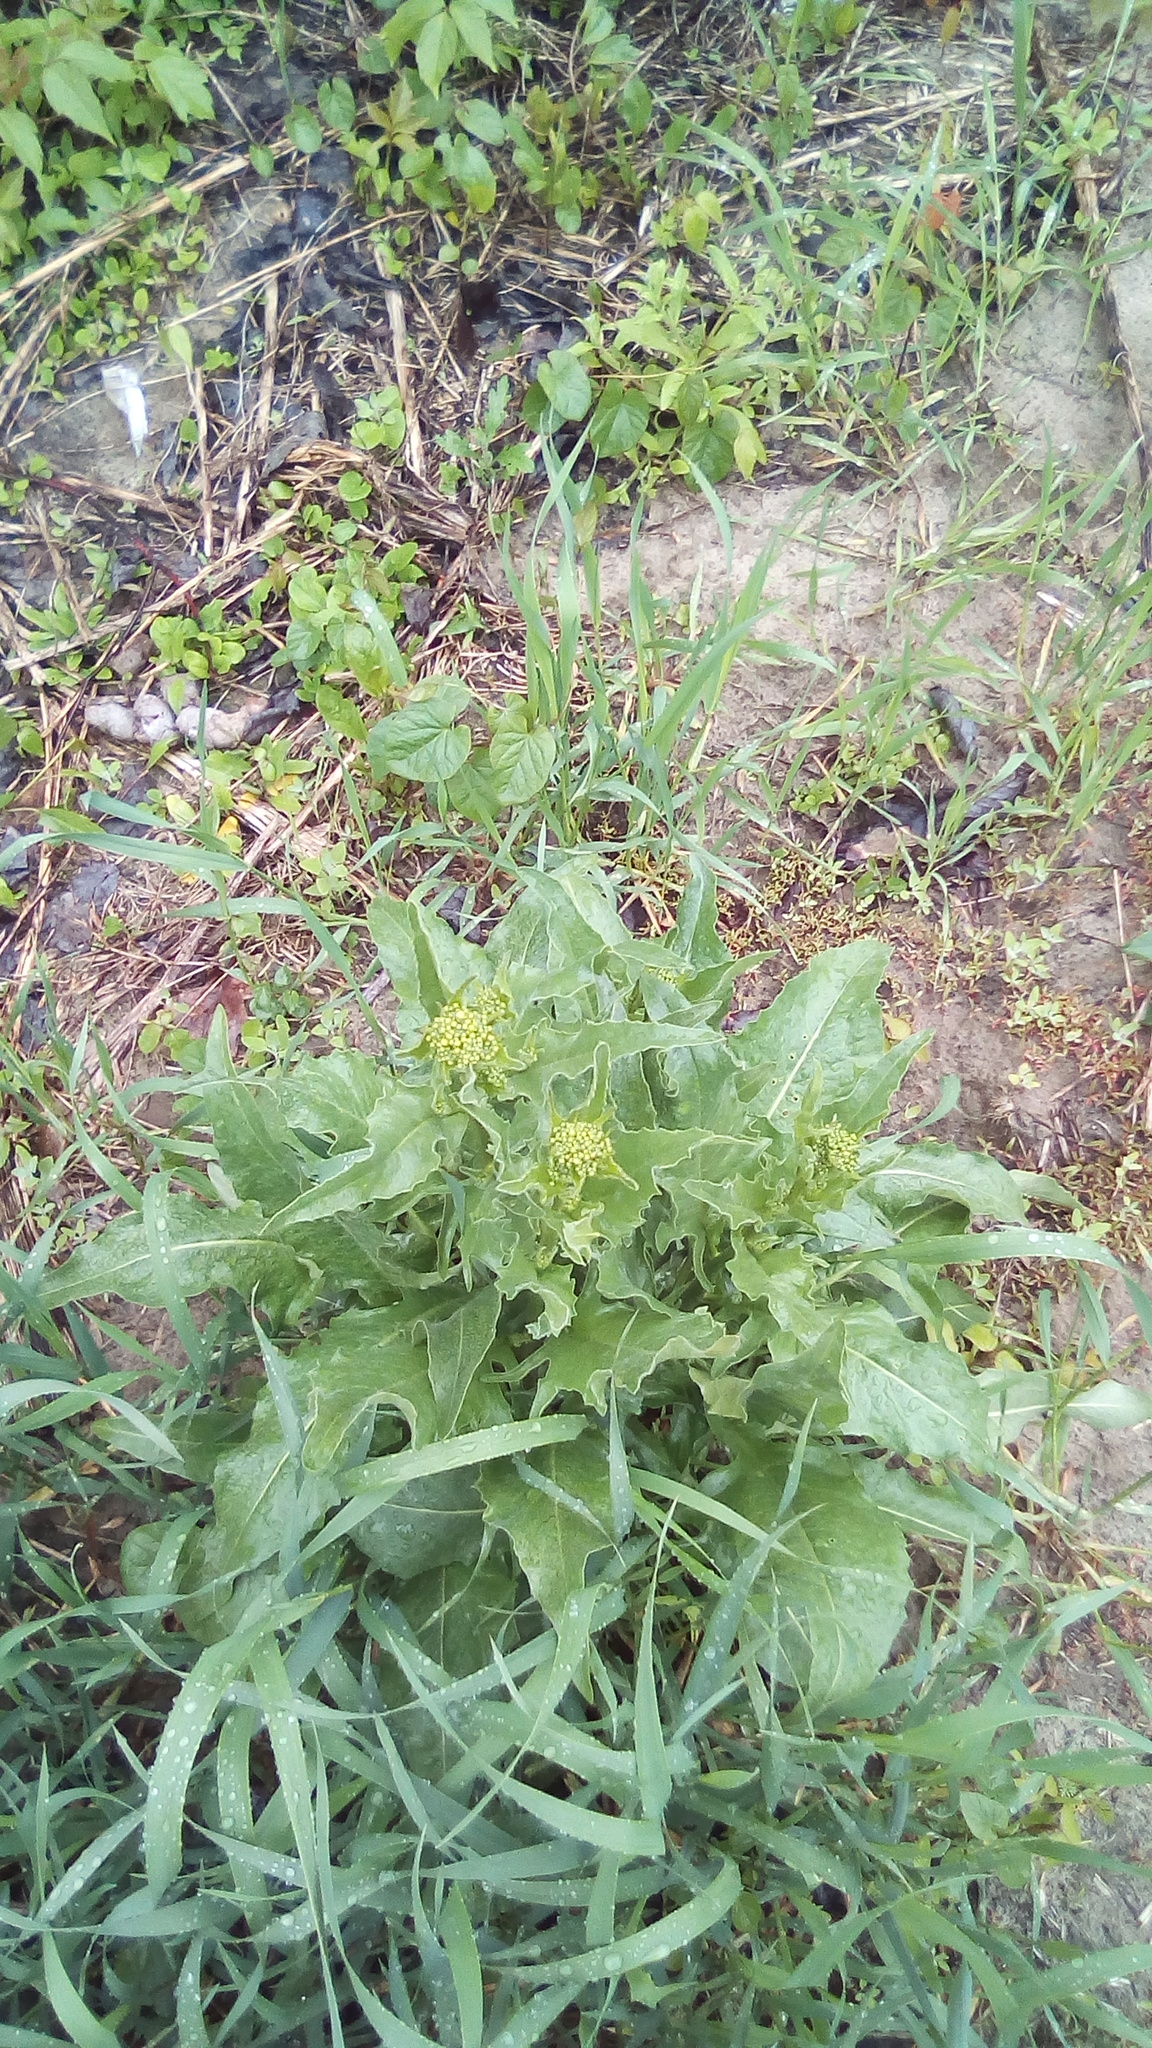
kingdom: Plantae
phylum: Tracheophyta
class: Magnoliopsida
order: Brassicales
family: Brassicaceae
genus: Bunias
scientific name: Bunias orientalis
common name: Warty-cabbage
